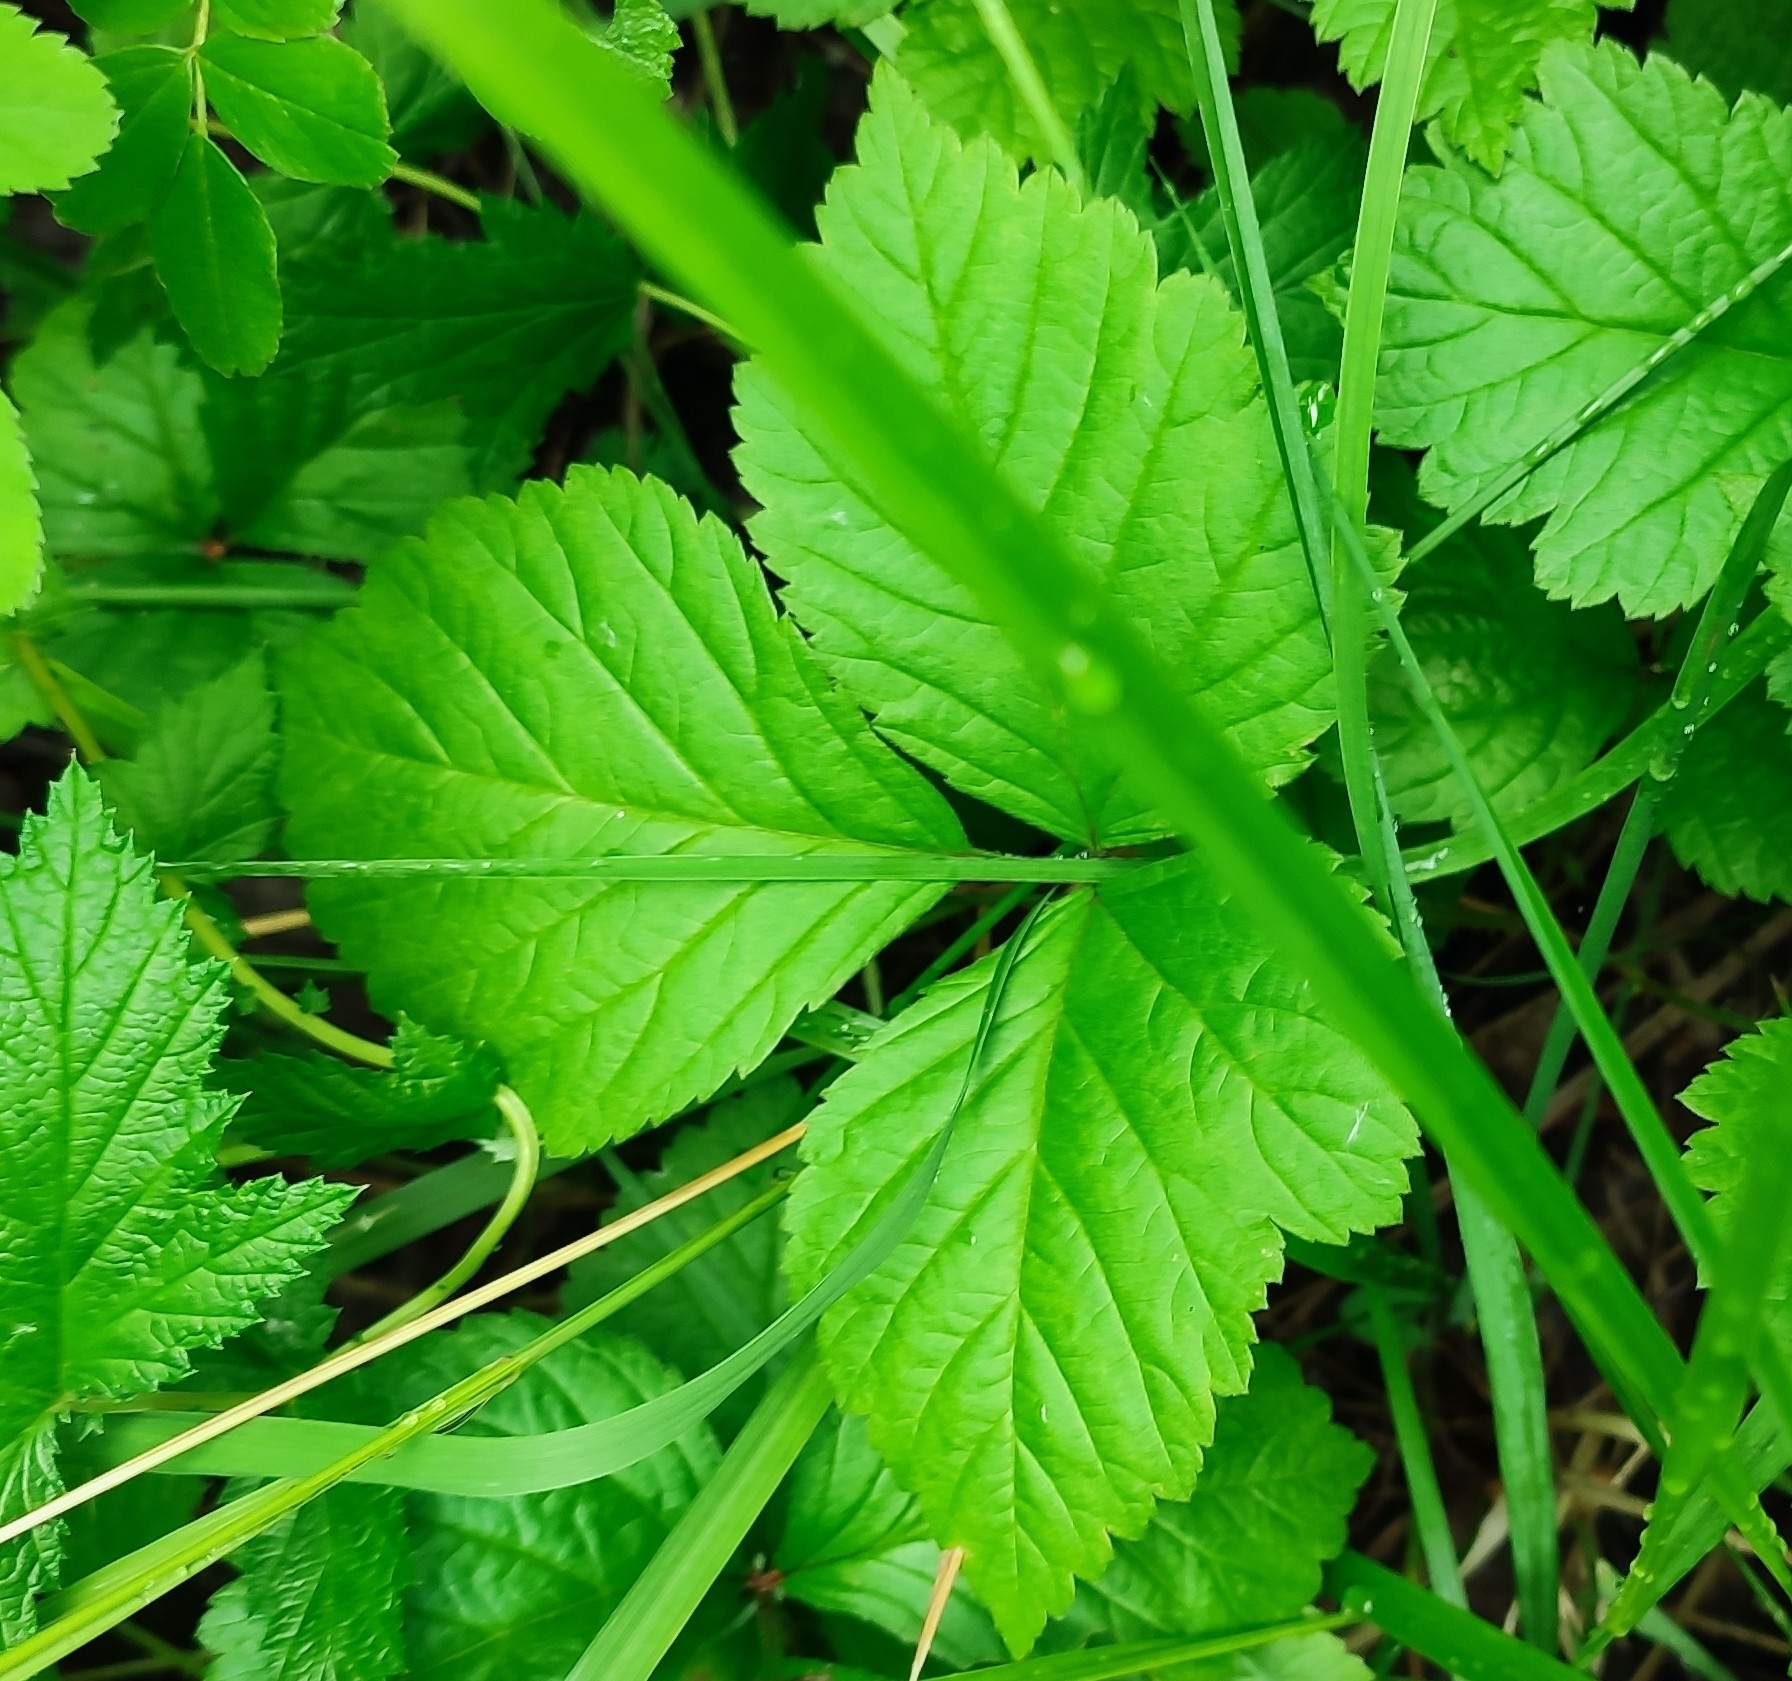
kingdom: Plantae
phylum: Tracheophyta
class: Magnoliopsida
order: Rosales
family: Rosaceae
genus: Rubus
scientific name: Rubus saxatilis
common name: Stone bramble
